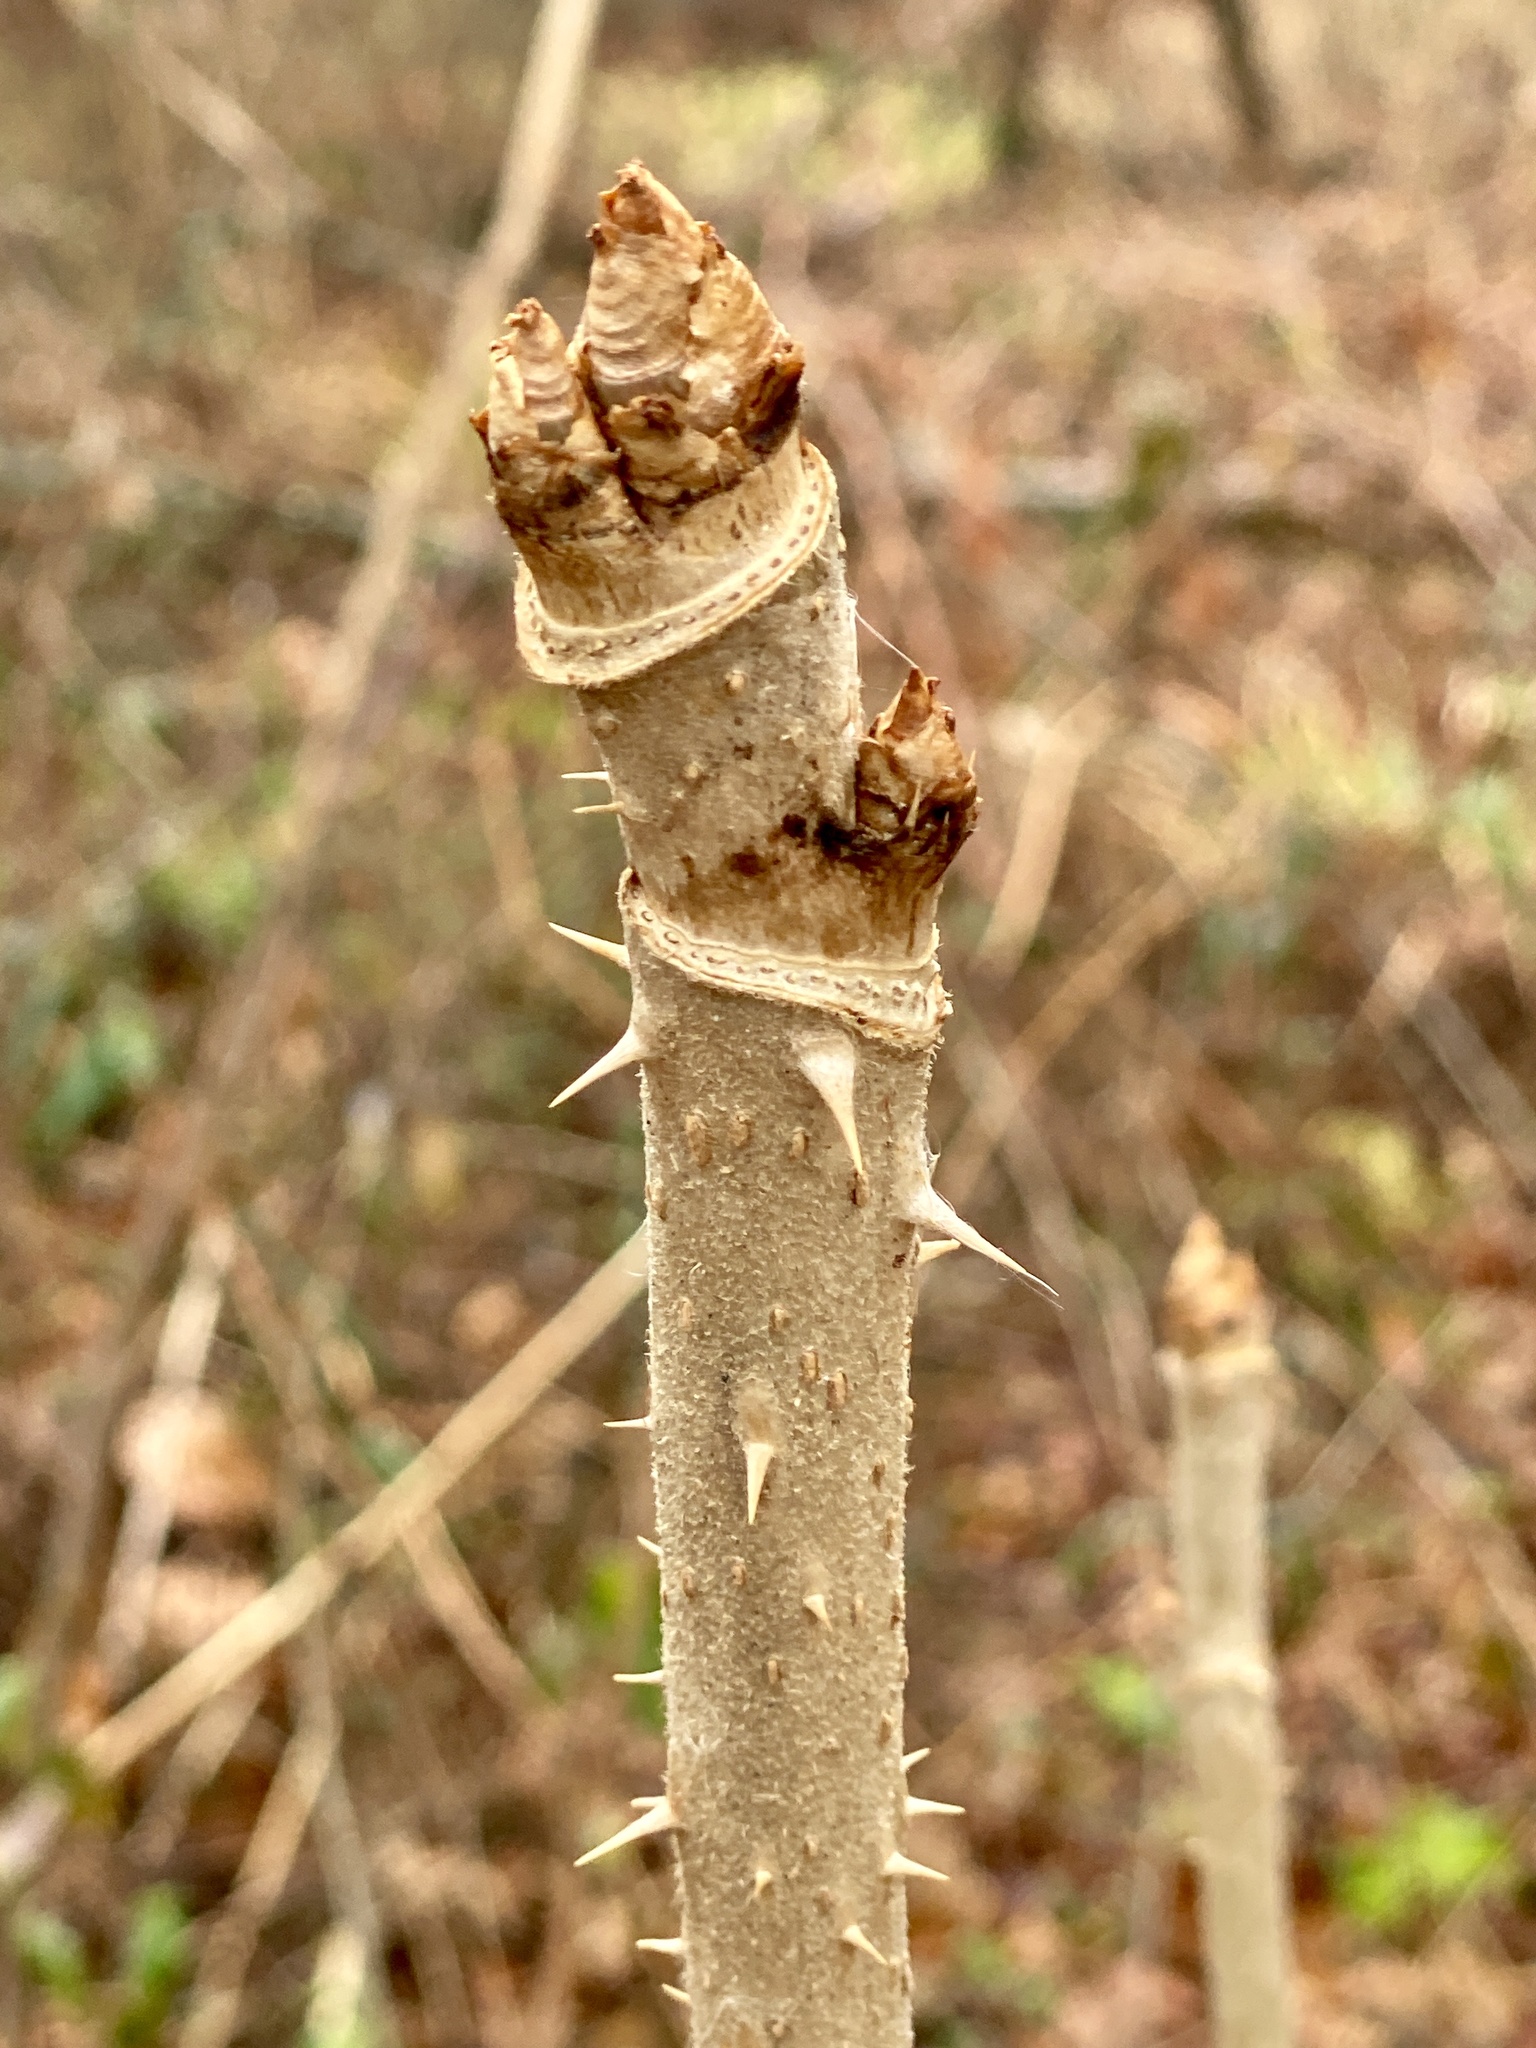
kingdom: Plantae
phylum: Tracheophyta
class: Magnoliopsida
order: Apiales
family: Araliaceae
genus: Aralia
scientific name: Aralia elata
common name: Japanese angelica-tree
